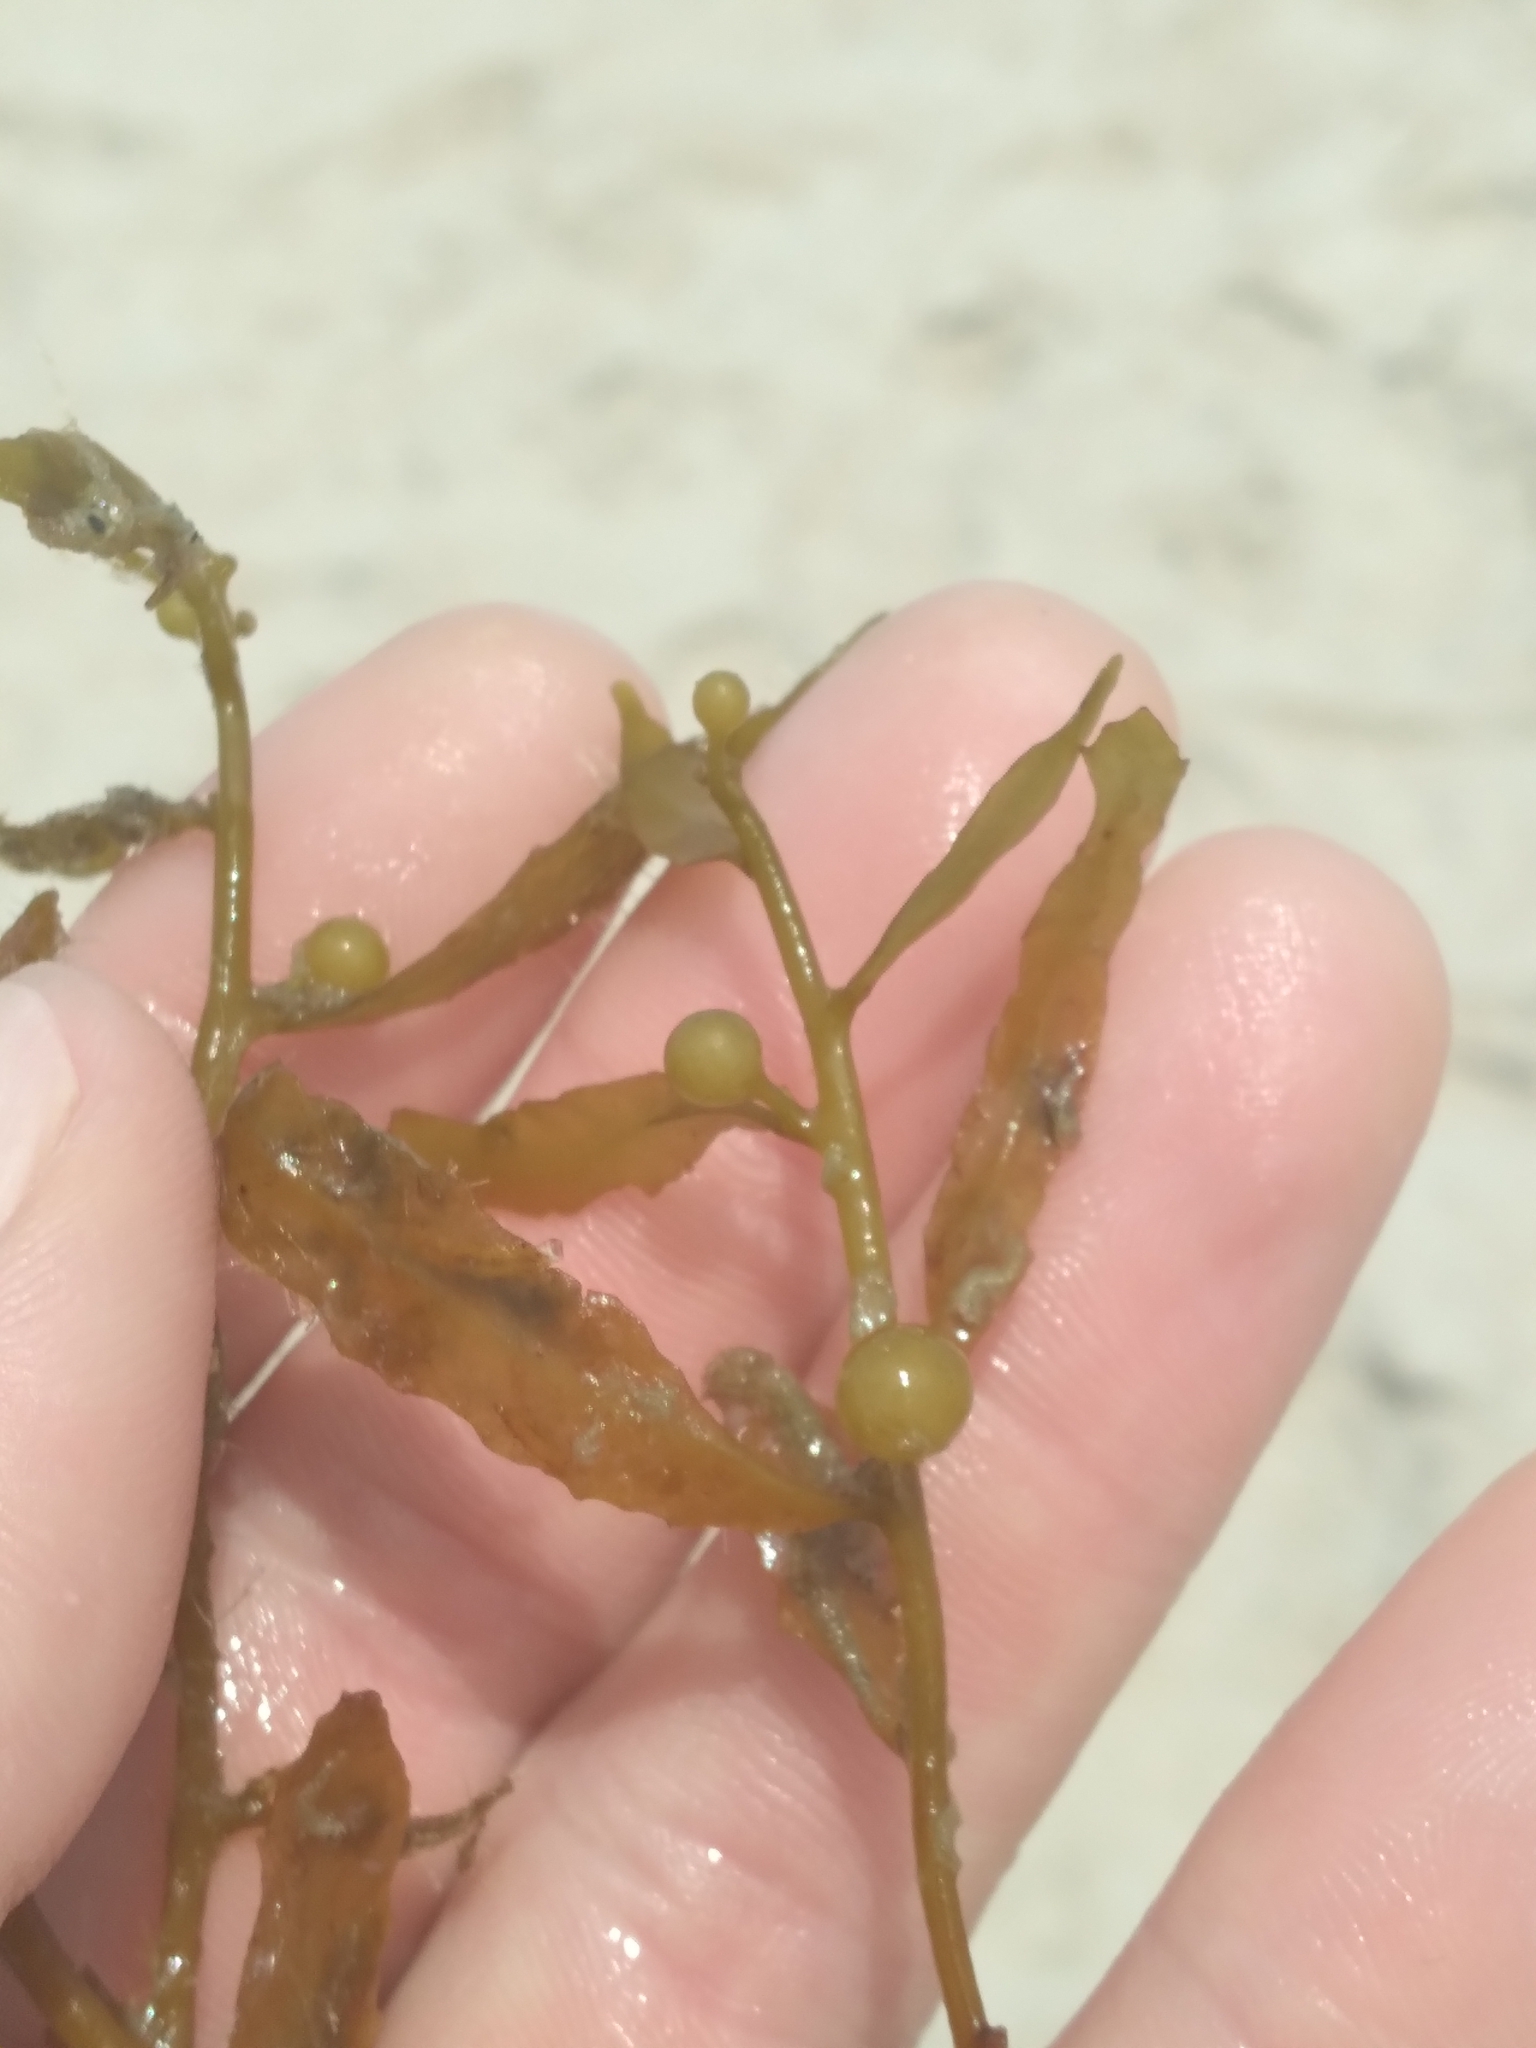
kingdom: Chromista
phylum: Ochrophyta
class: Phaeophyceae
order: Fucales
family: Sargassaceae
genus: Sargassum
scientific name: Sargassum fluitans
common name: Sargassum seaweed
